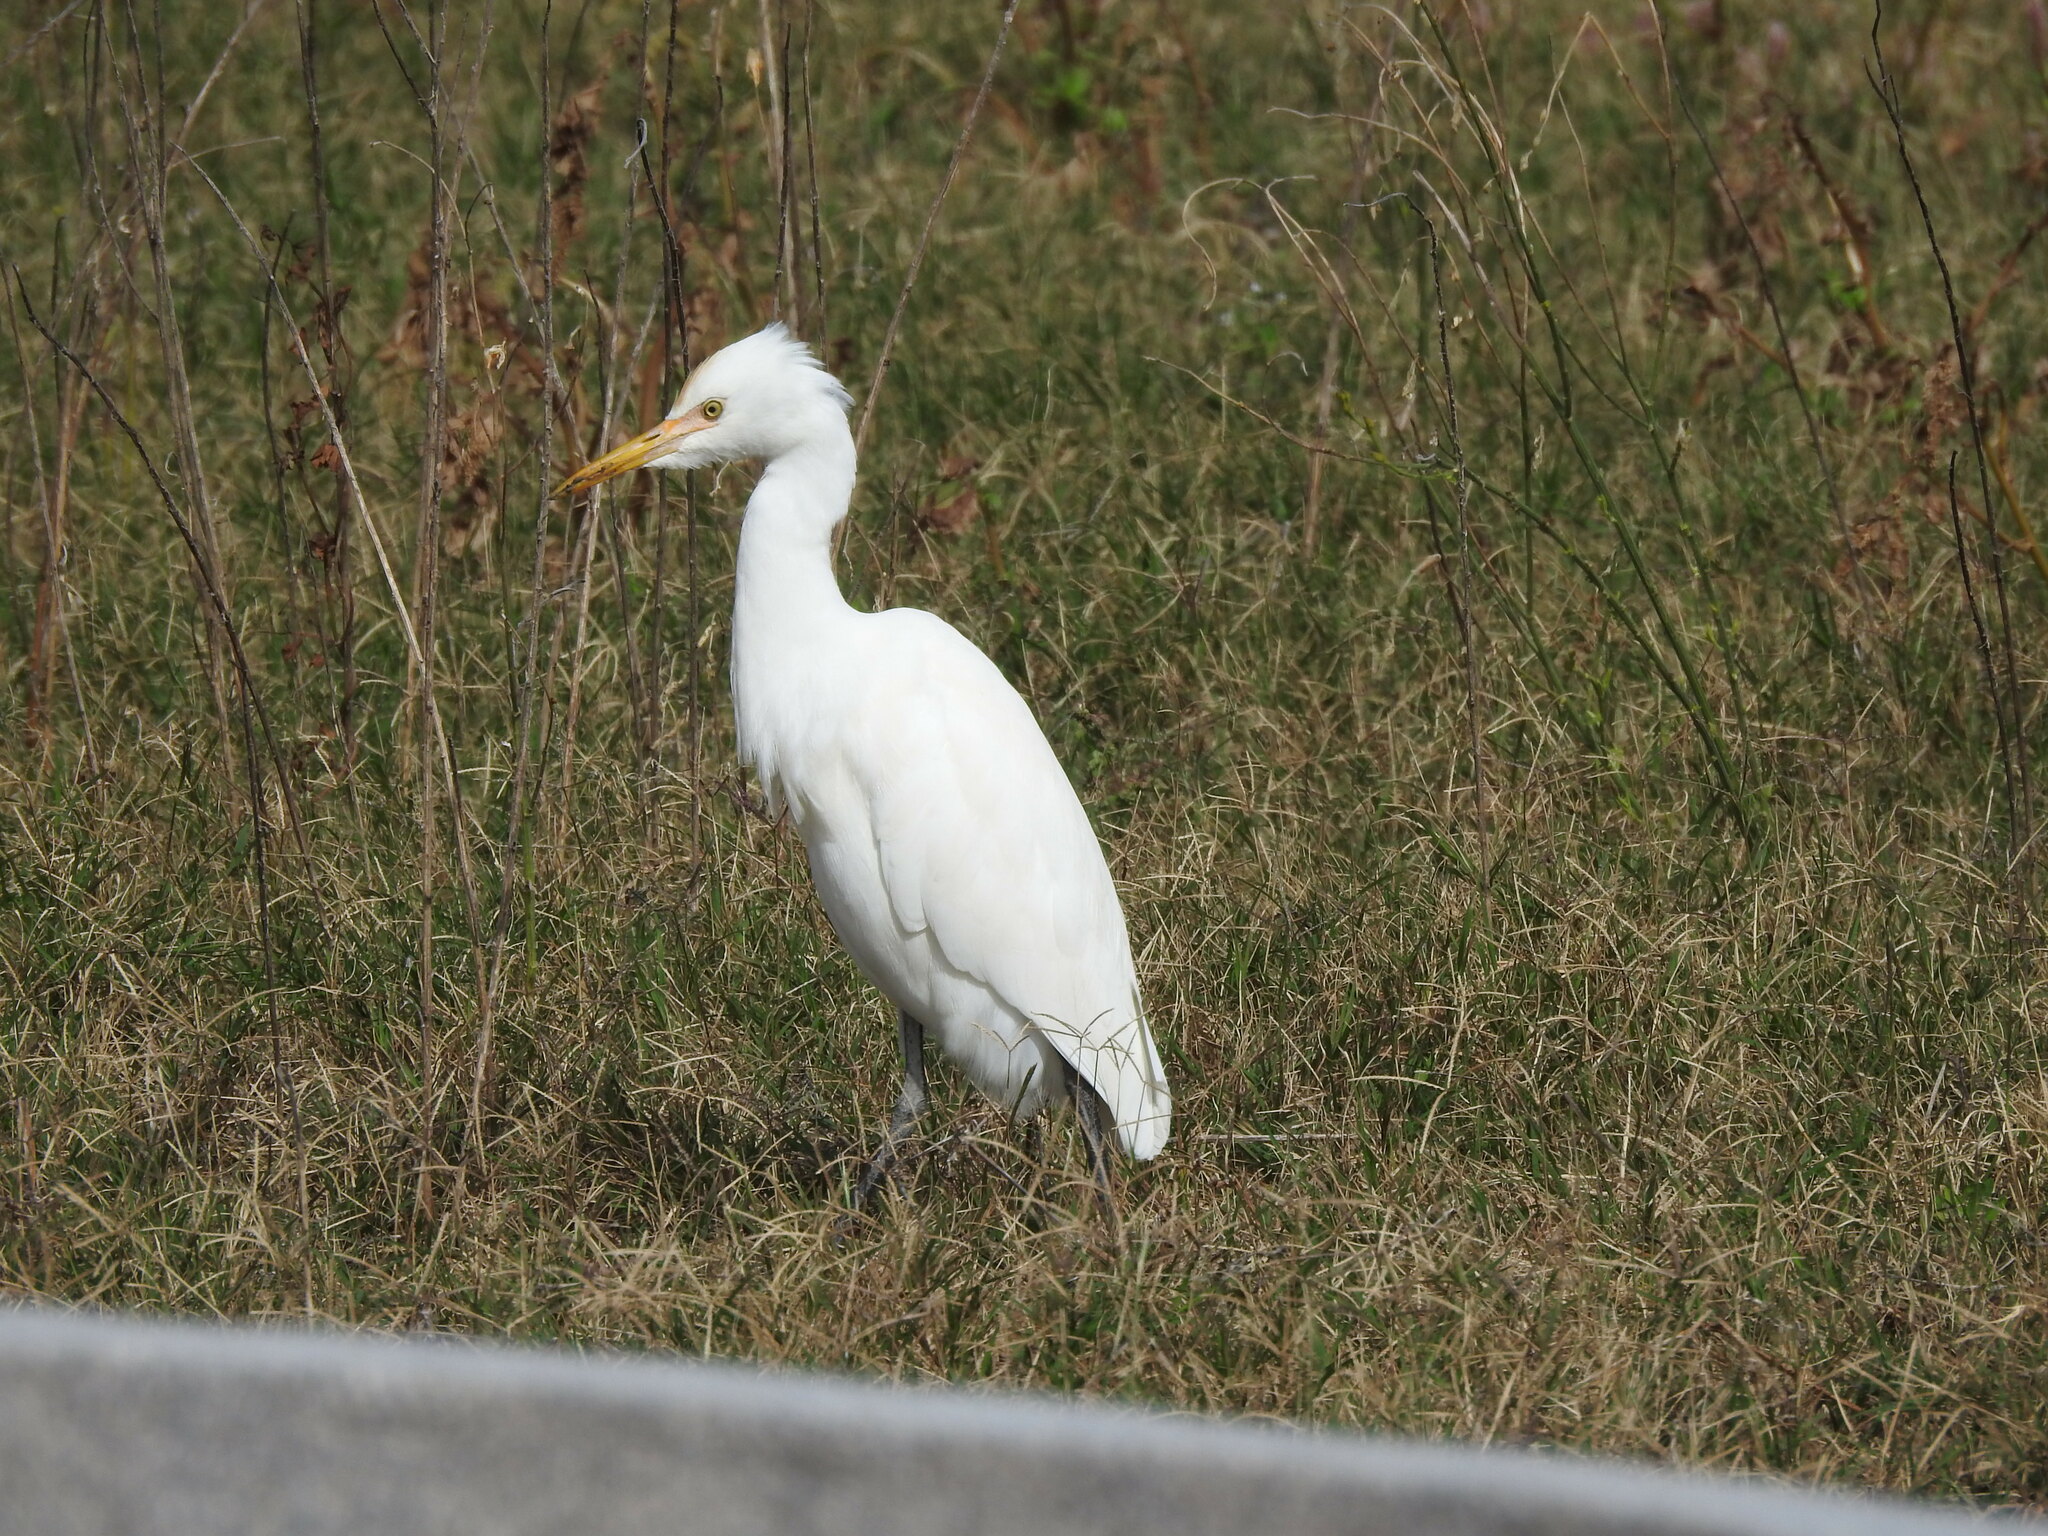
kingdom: Animalia
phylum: Chordata
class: Aves
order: Pelecaniformes
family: Ardeidae
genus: Bubulcus
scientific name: Bubulcus coromandus
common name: Eastern cattle egret
